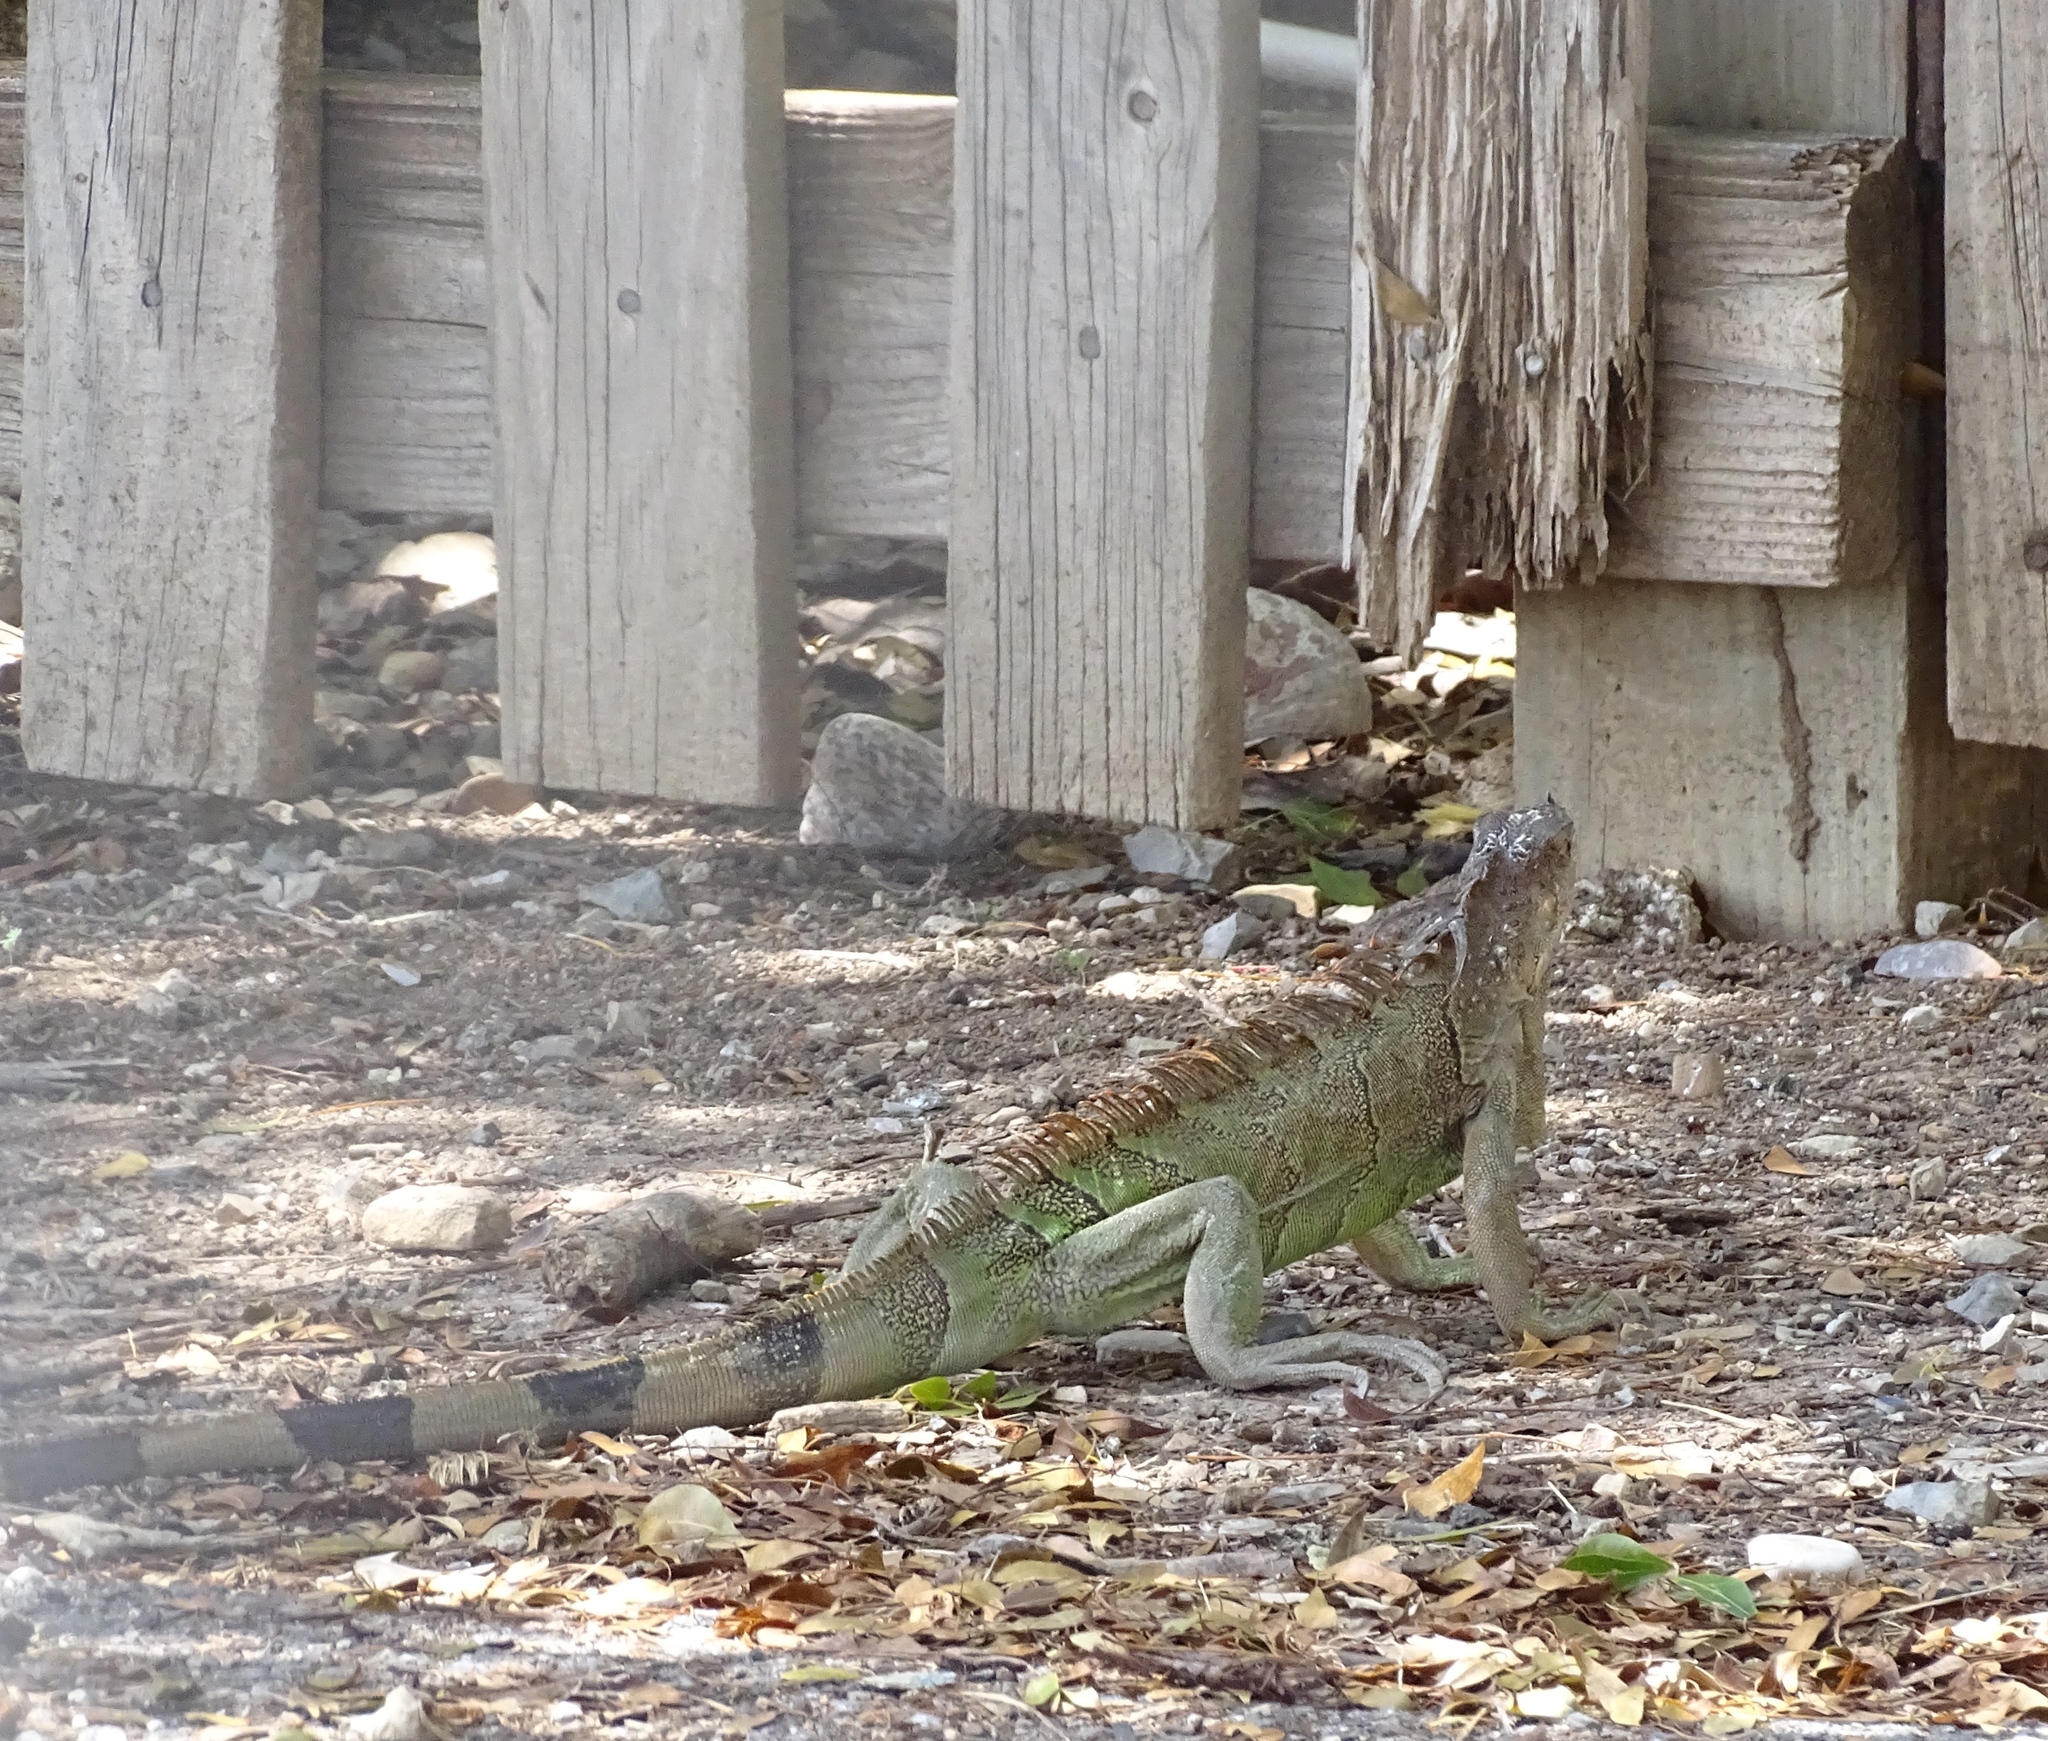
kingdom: Animalia
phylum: Chordata
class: Squamata
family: Iguanidae
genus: Iguana
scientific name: Iguana iguana
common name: Green iguana
